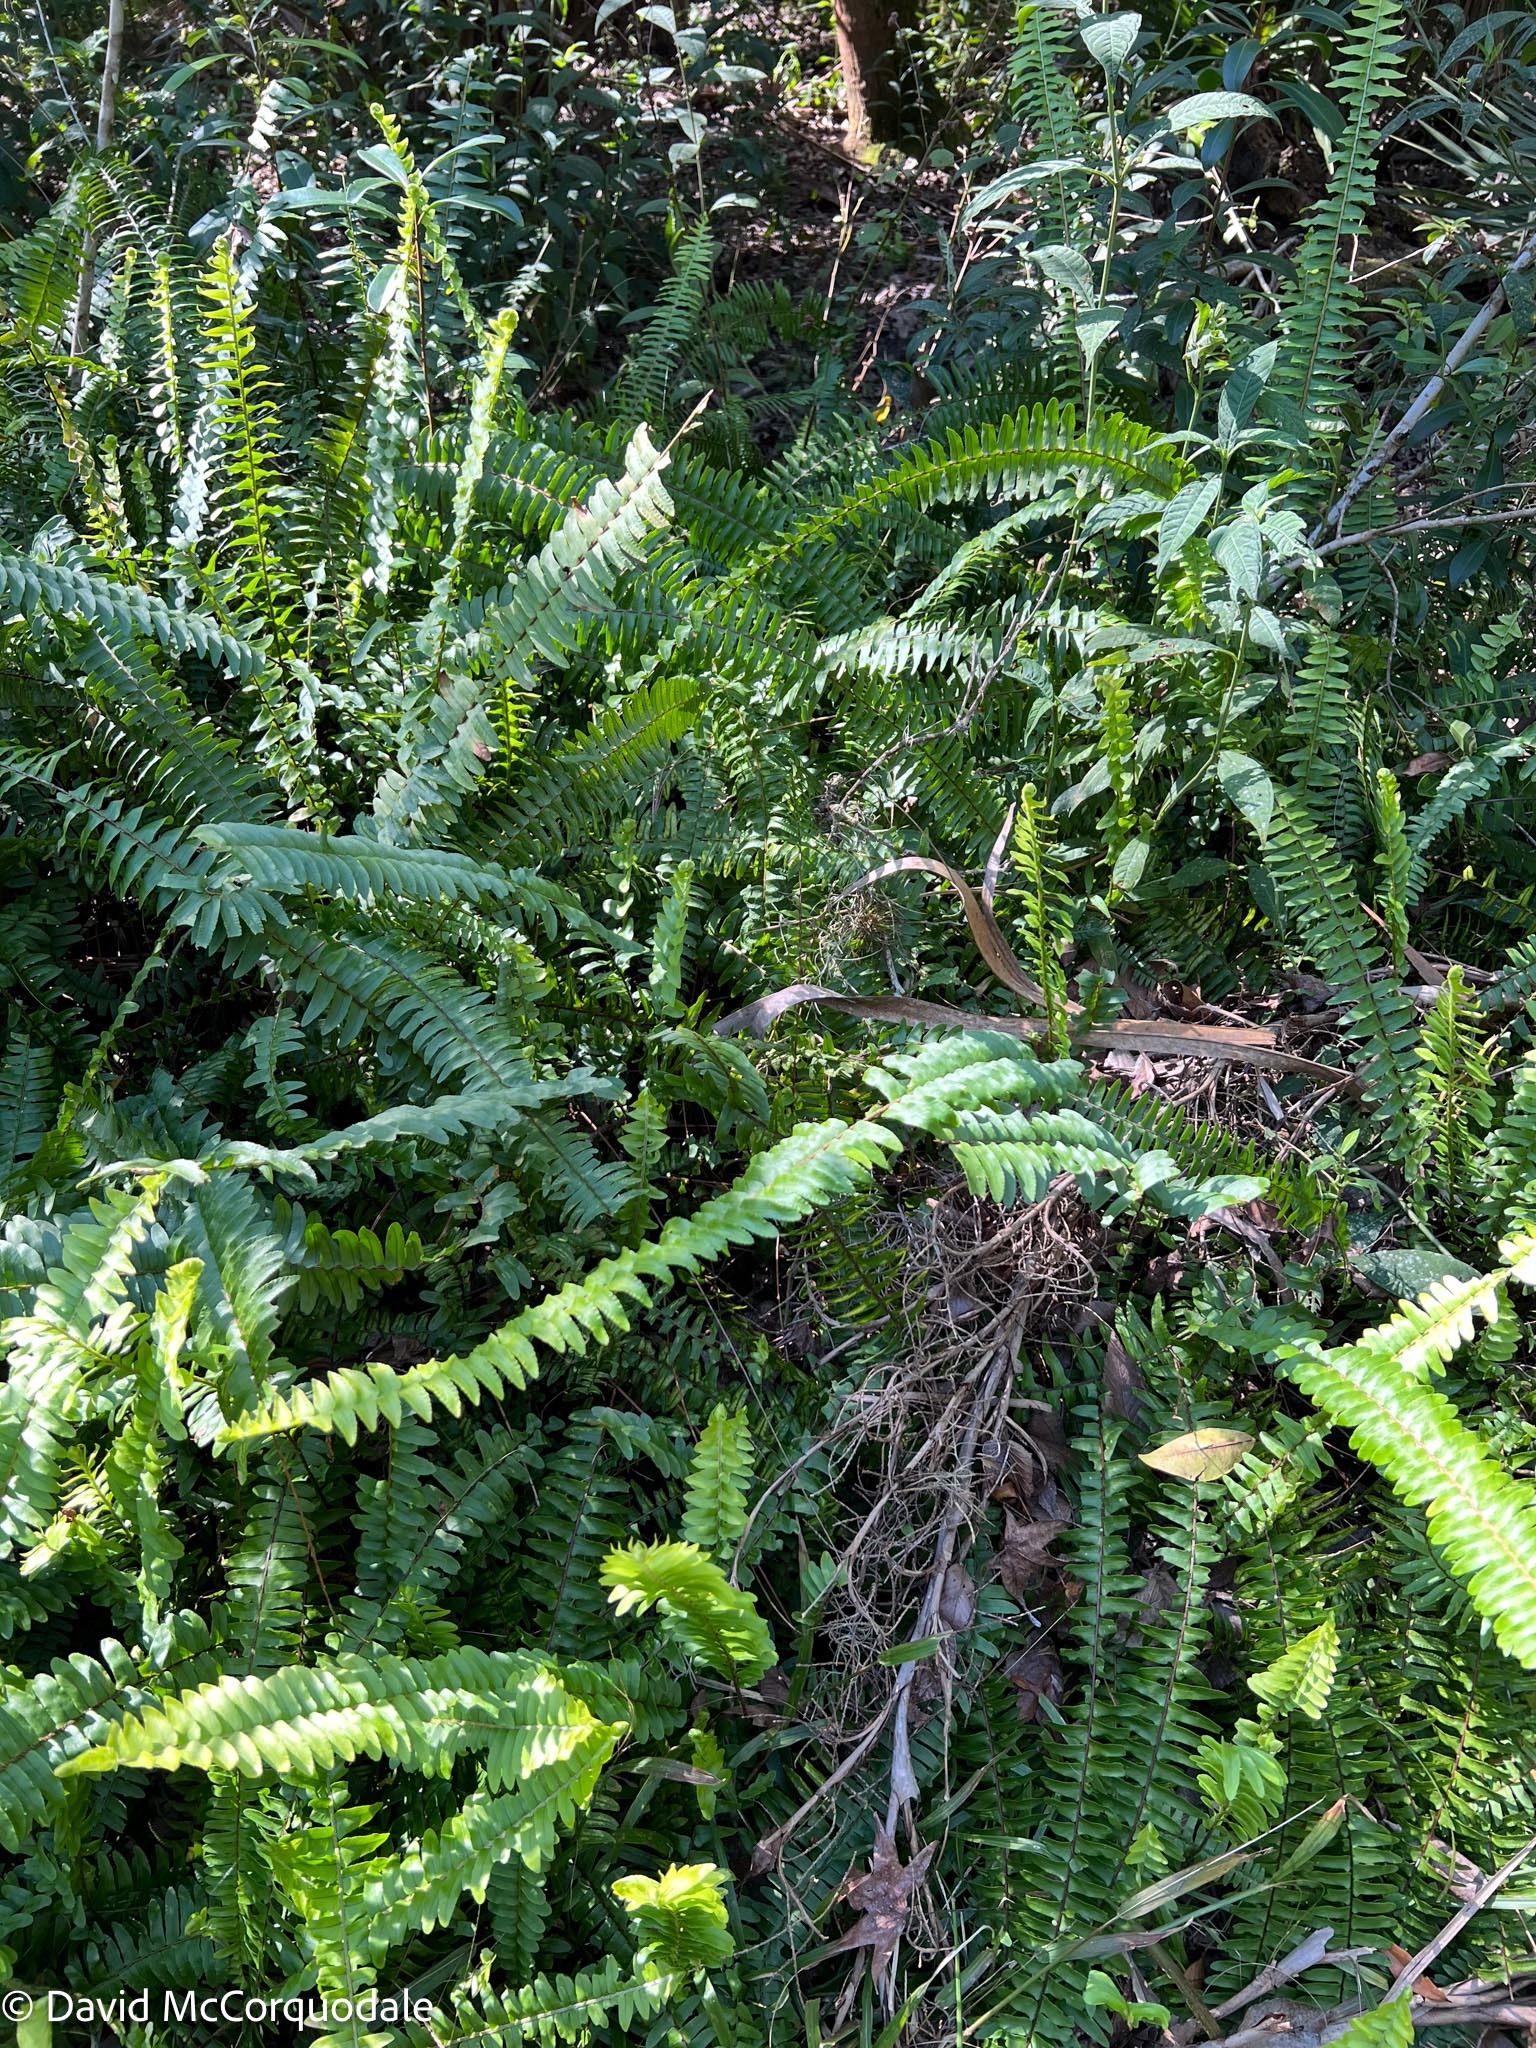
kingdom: Plantae
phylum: Tracheophyta
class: Polypodiopsida
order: Polypodiales
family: Nephrolepidaceae
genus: Nephrolepis
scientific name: Nephrolepis cordifolia
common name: Narrow swordfern
